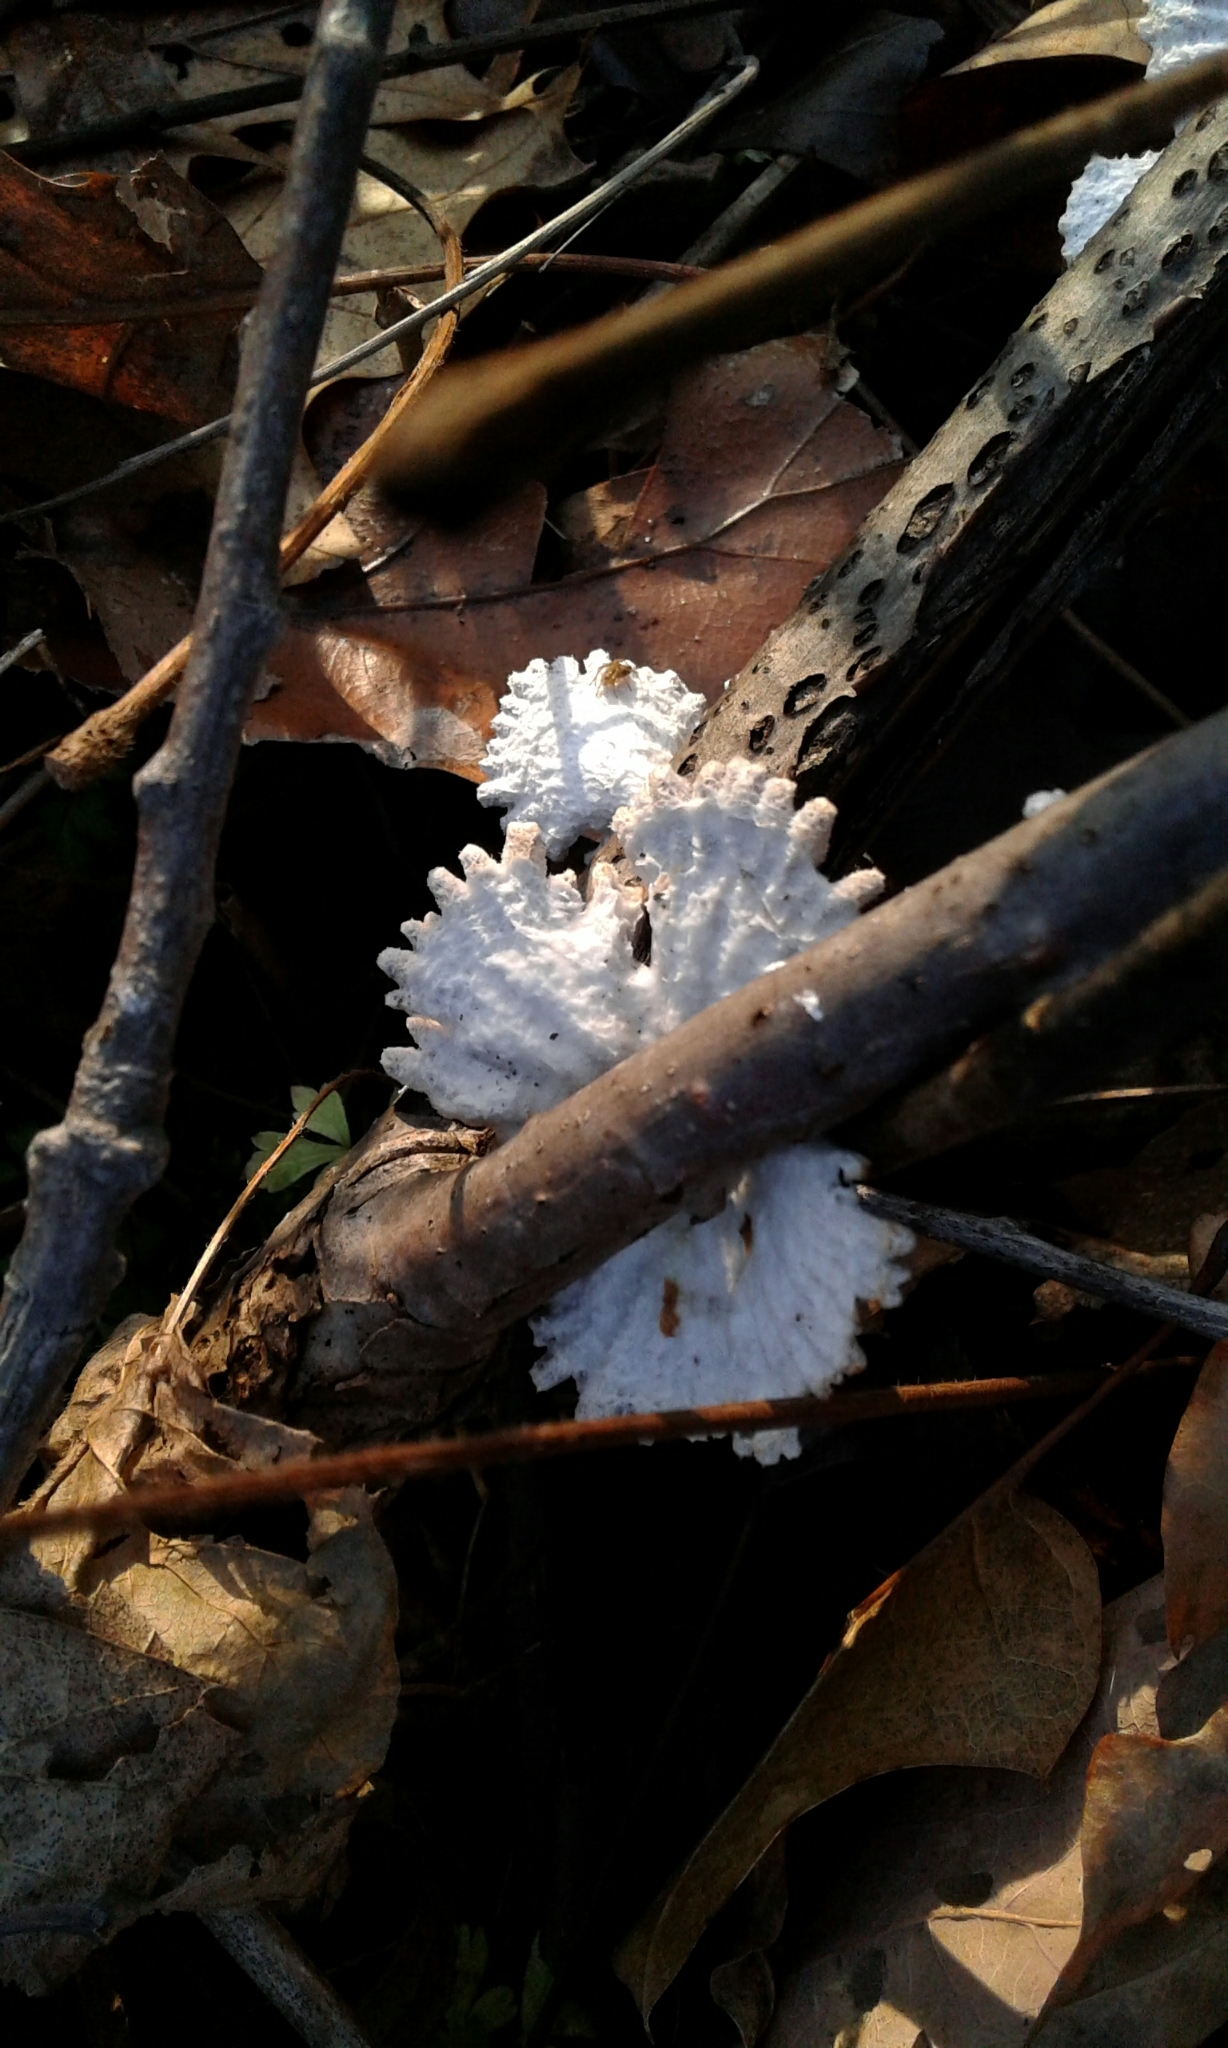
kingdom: Fungi
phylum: Basidiomycota
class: Agaricomycetes
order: Agaricales
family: Schizophyllaceae
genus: Schizophyllum
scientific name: Schizophyllum commune
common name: Common porecrust
